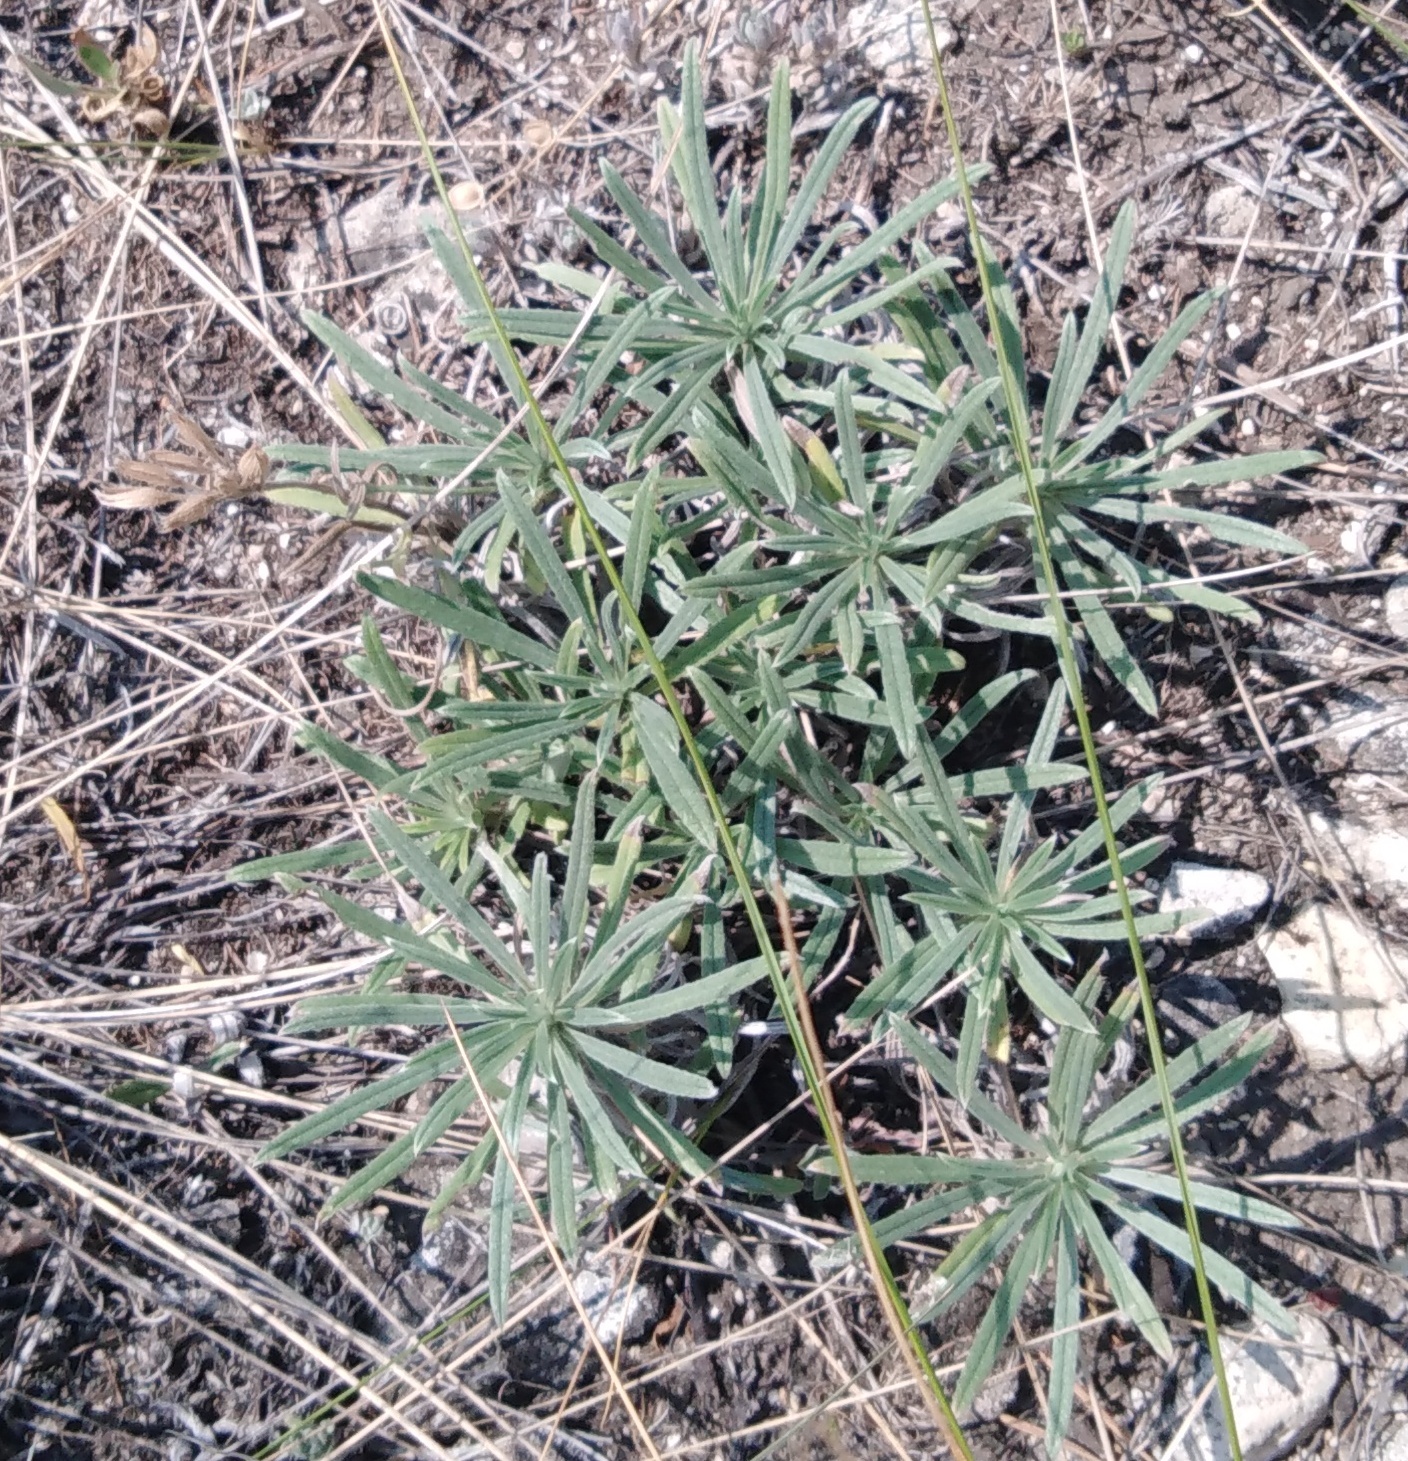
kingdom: Plantae
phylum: Tracheophyta
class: Magnoliopsida
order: Boraginales
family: Boraginaceae
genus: Onosma
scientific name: Onosma simplicissima
